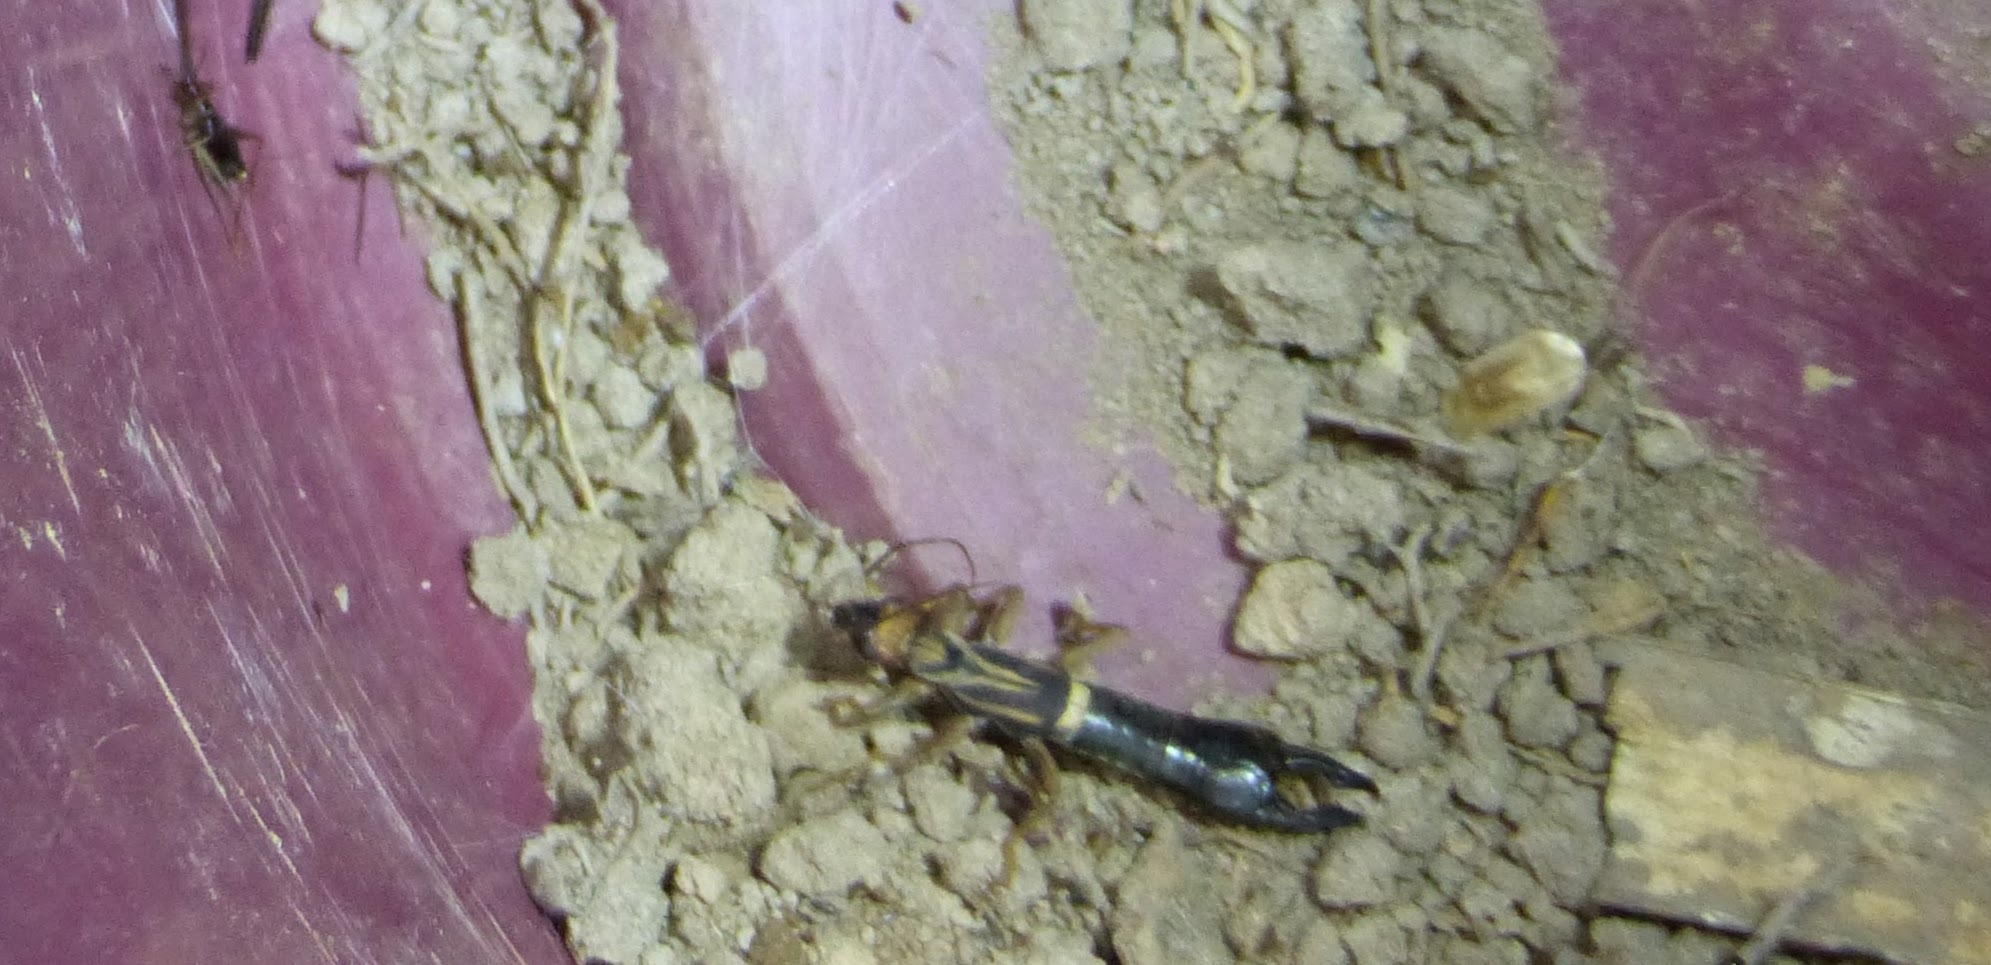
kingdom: Animalia
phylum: Arthropoda
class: Insecta
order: Dermaptera
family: Pygidicranidae
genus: Pygidicrana
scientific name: Pygidicrana v-nigrum
